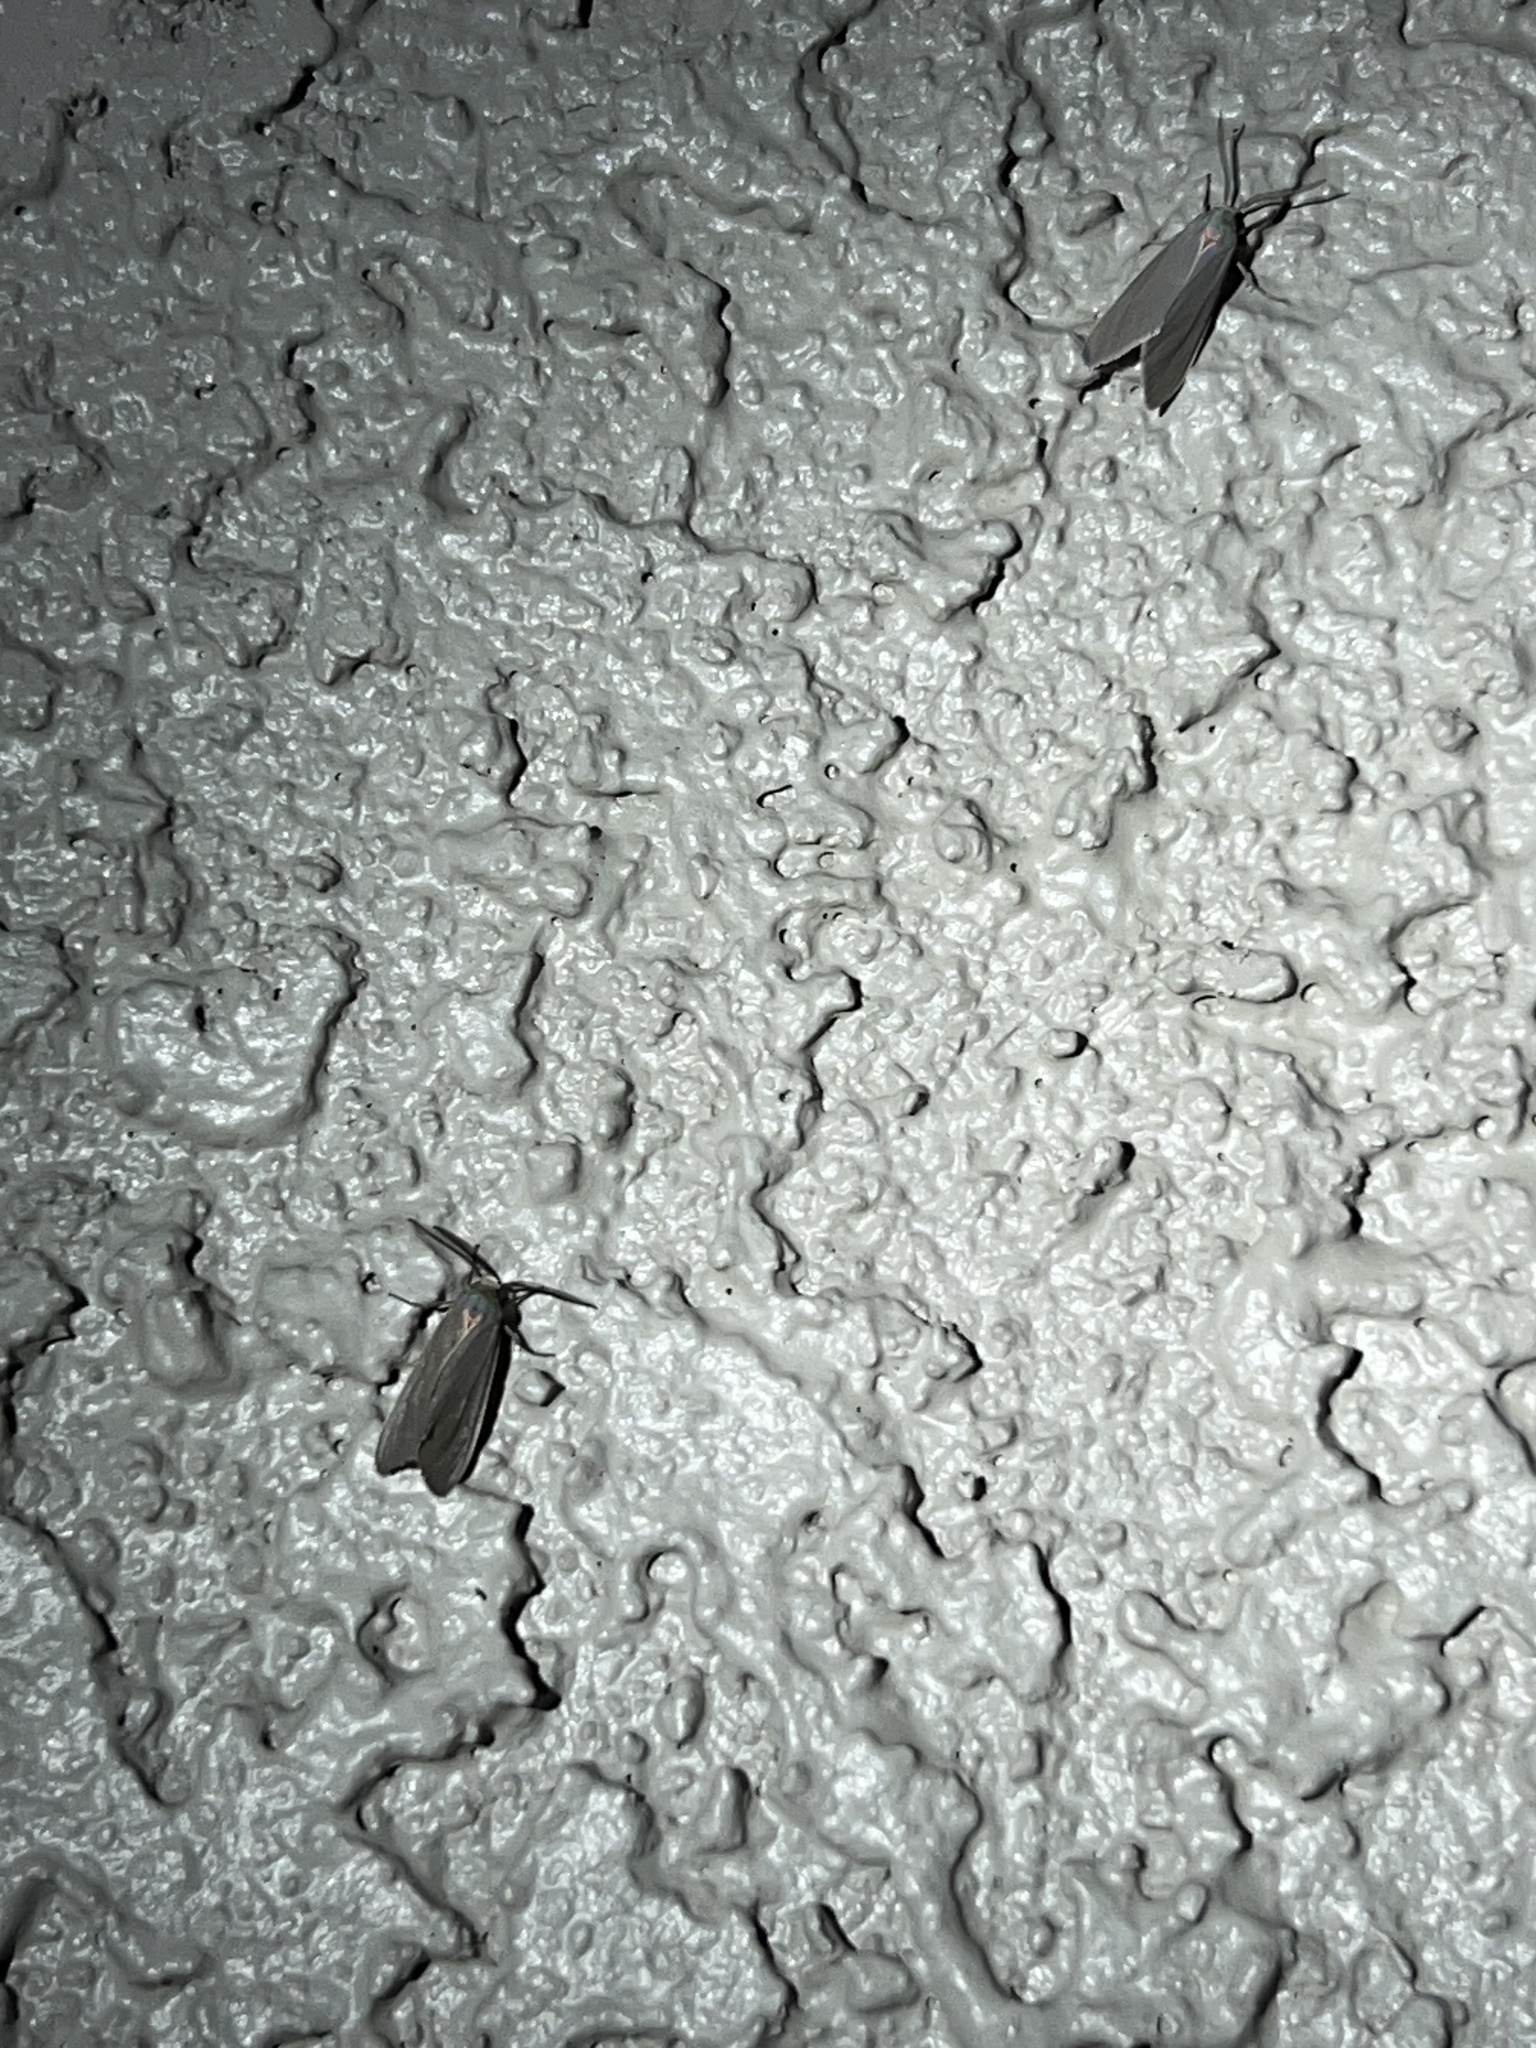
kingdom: Animalia
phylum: Arthropoda
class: Insecta
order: Lepidoptera
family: Erebidae
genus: Pygarctia
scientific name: Pygarctia murina
